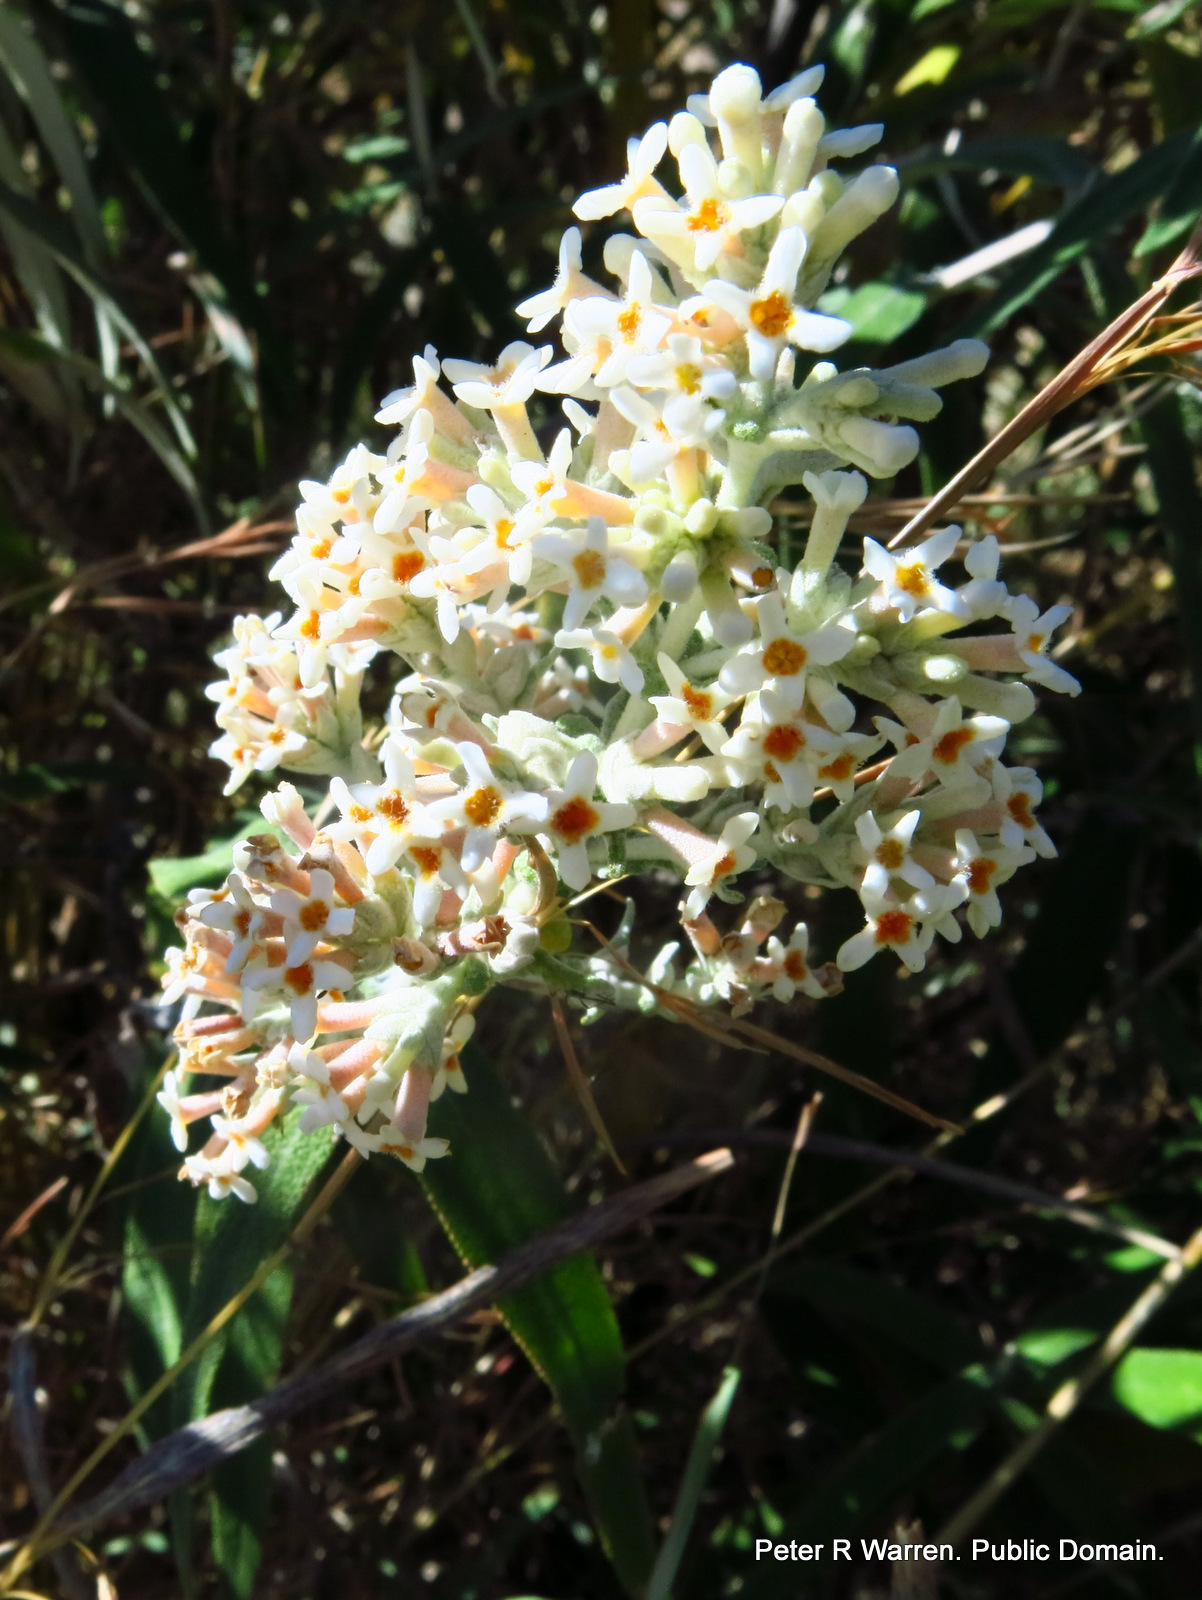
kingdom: Plantae
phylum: Tracheophyta
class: Magnoliopsida
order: Lamiales
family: Scrophulariaceae
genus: Buddleja
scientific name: Buddleja salviifolia
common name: Sagewood
